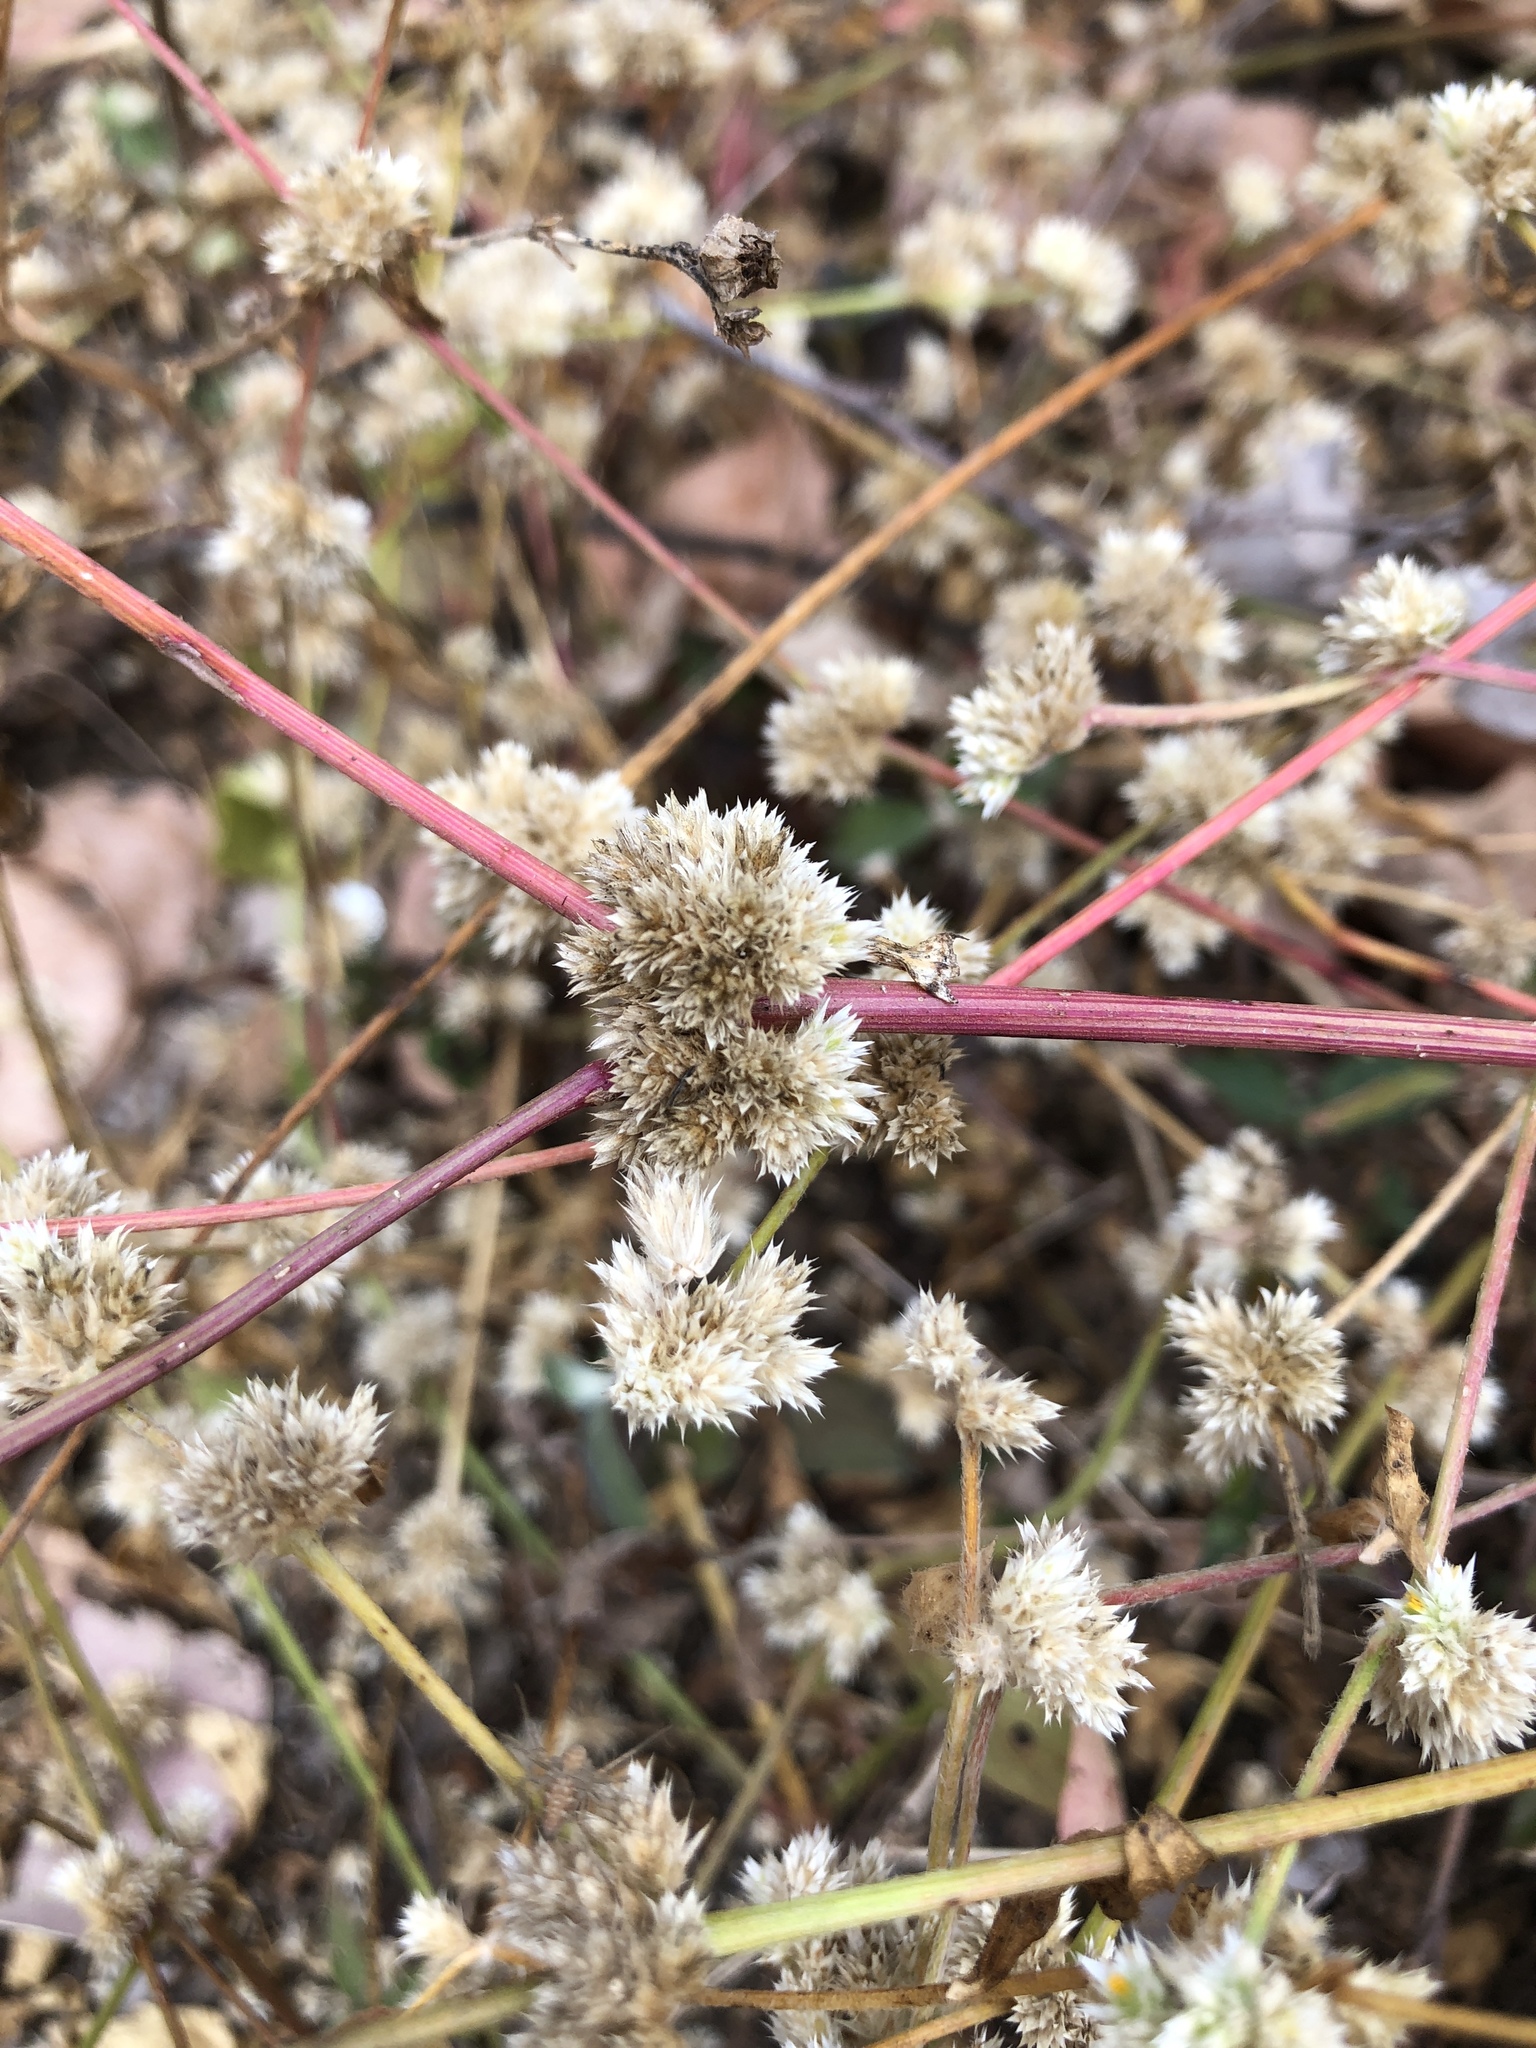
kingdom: Plantae
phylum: Tracheophyta
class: Magnoliopsida
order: Caryophyllales
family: Amaranthaceae
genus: Alternanthera
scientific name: Alternanthera ficoidea
